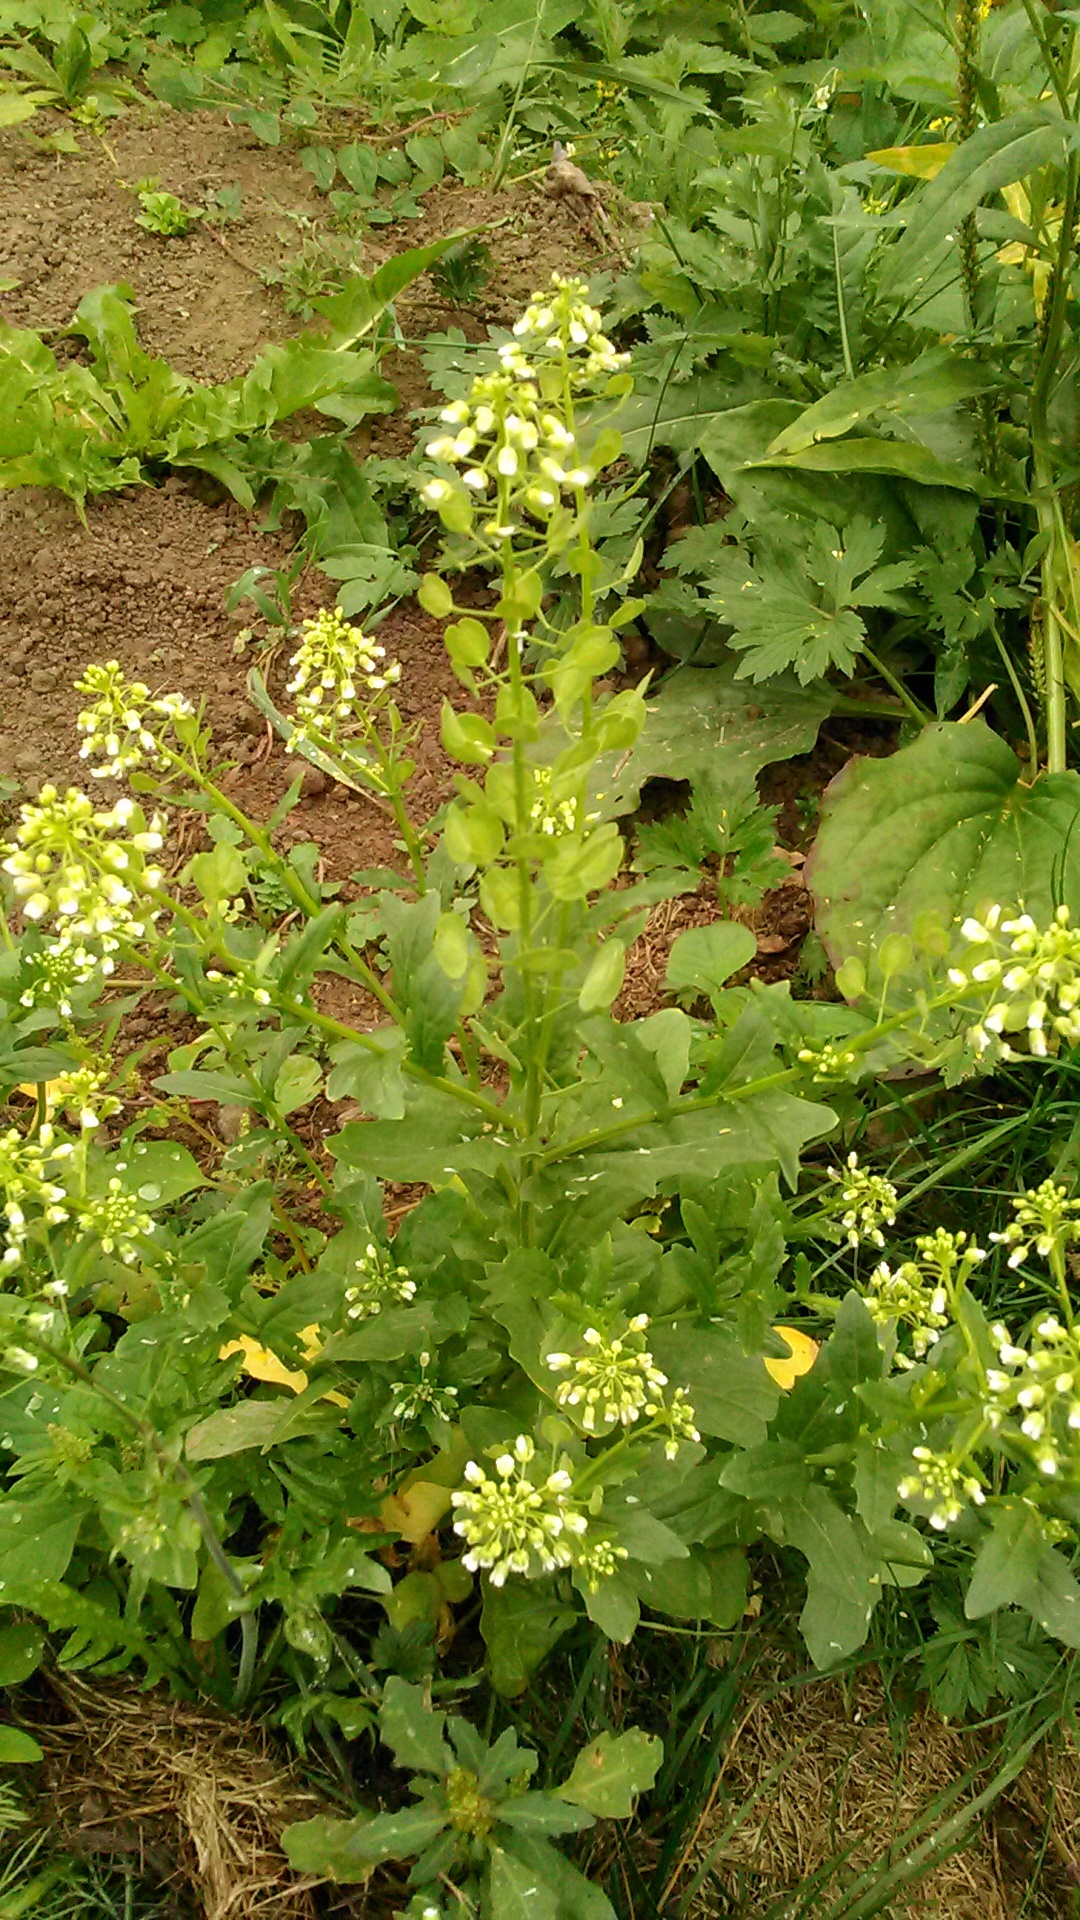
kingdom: Plantae
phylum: Tracheophyta
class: Magnoliopsida
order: Brassicales
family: Brassicaceae
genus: Thlaspi
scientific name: Thlaspi arvense
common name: Field pennycress
